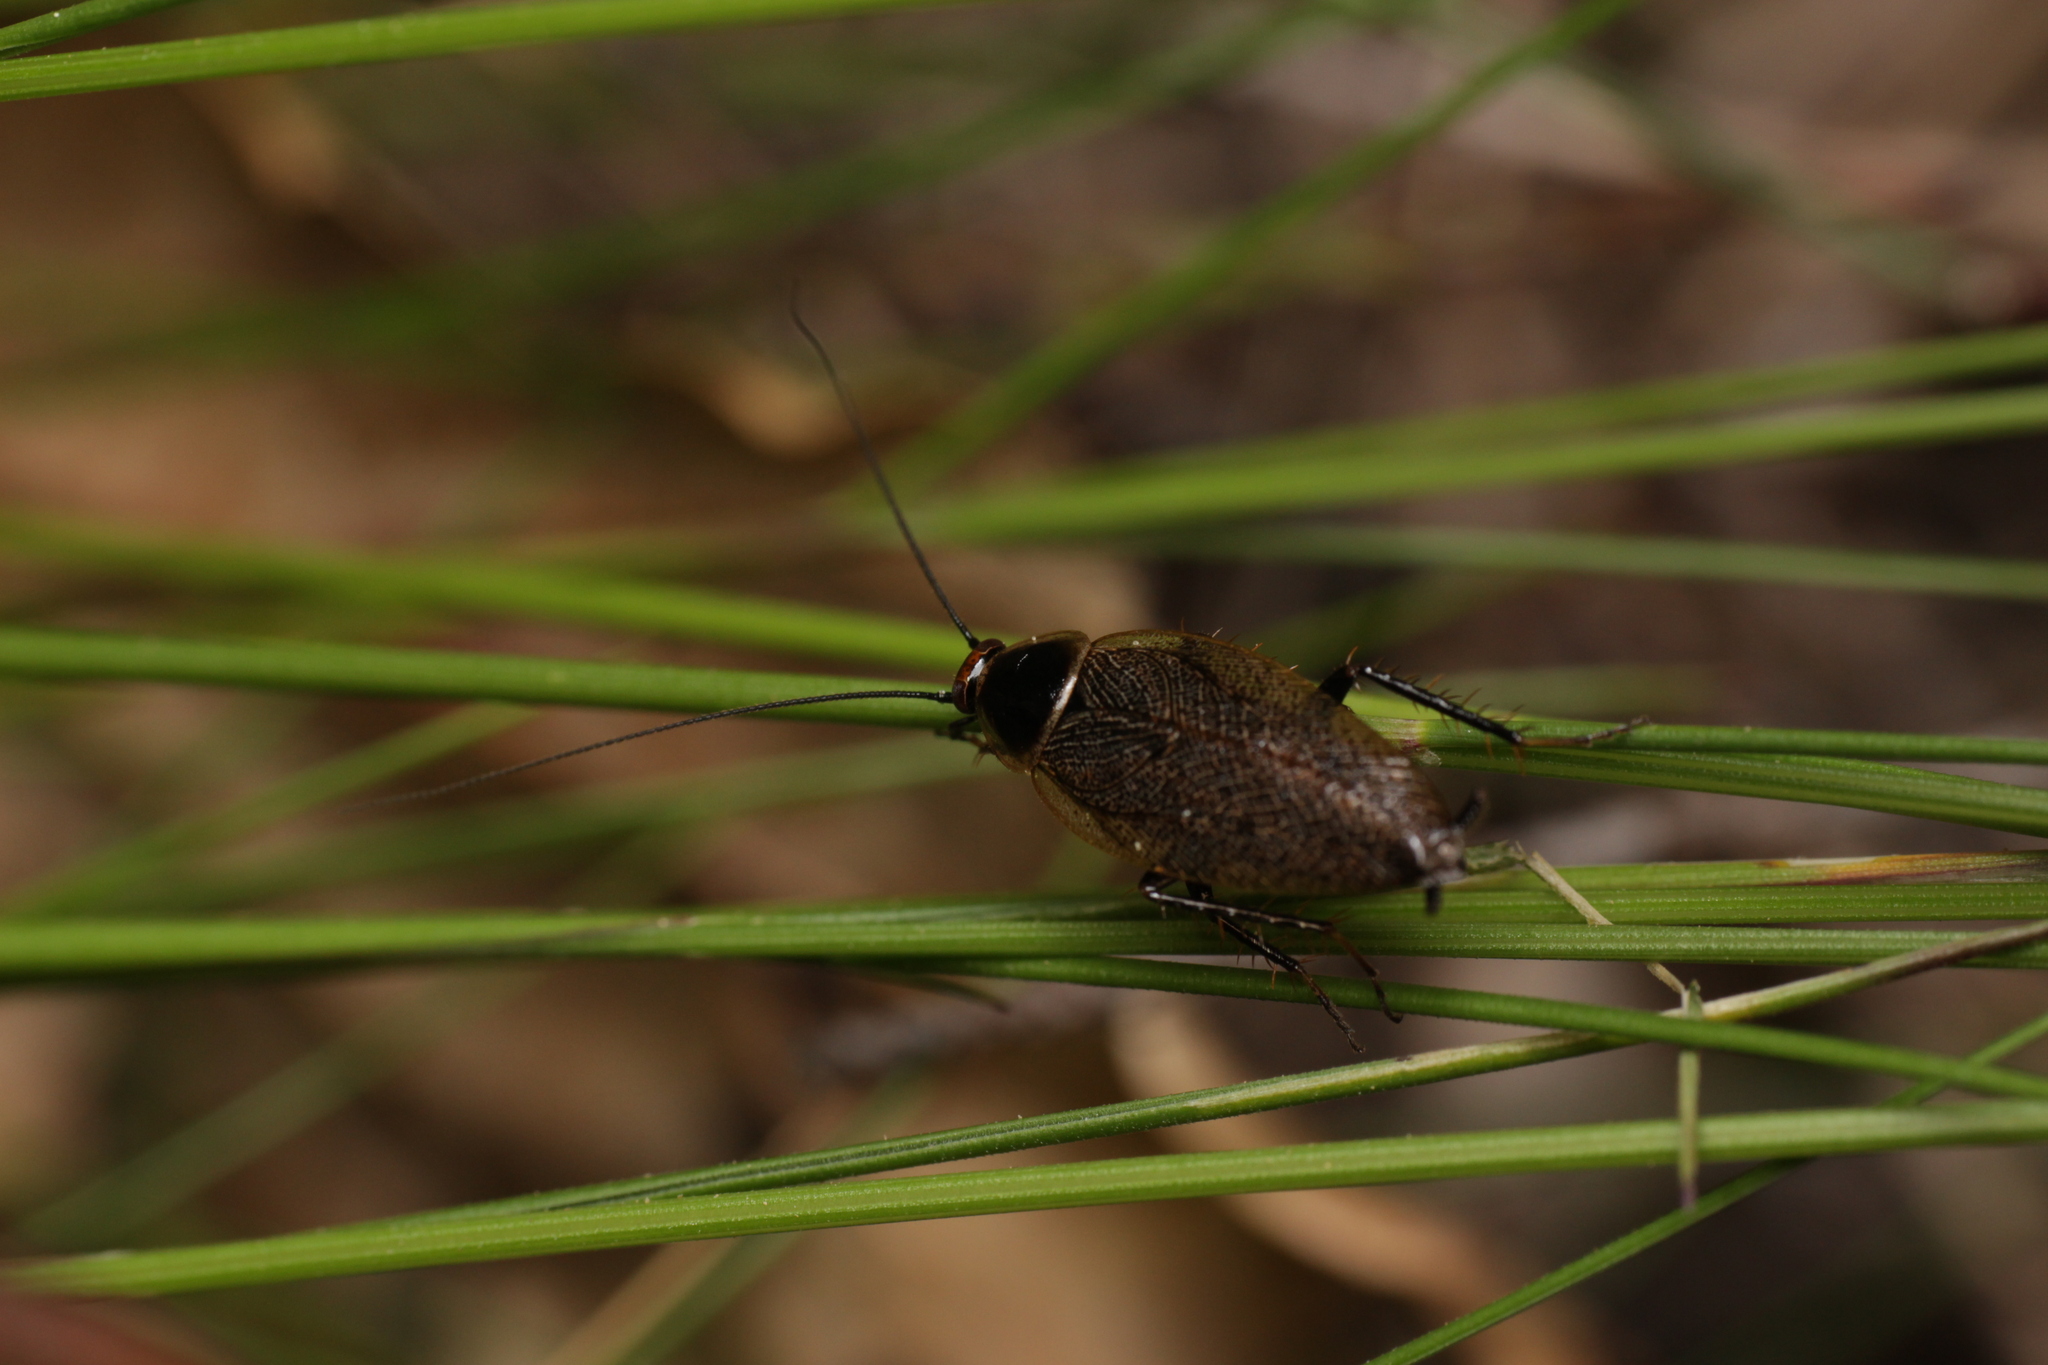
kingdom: Animalia
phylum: Arthropoda
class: Insecta
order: Blattodea
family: Ectobiidae
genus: Ectobius
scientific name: Ectobius erythronotus
